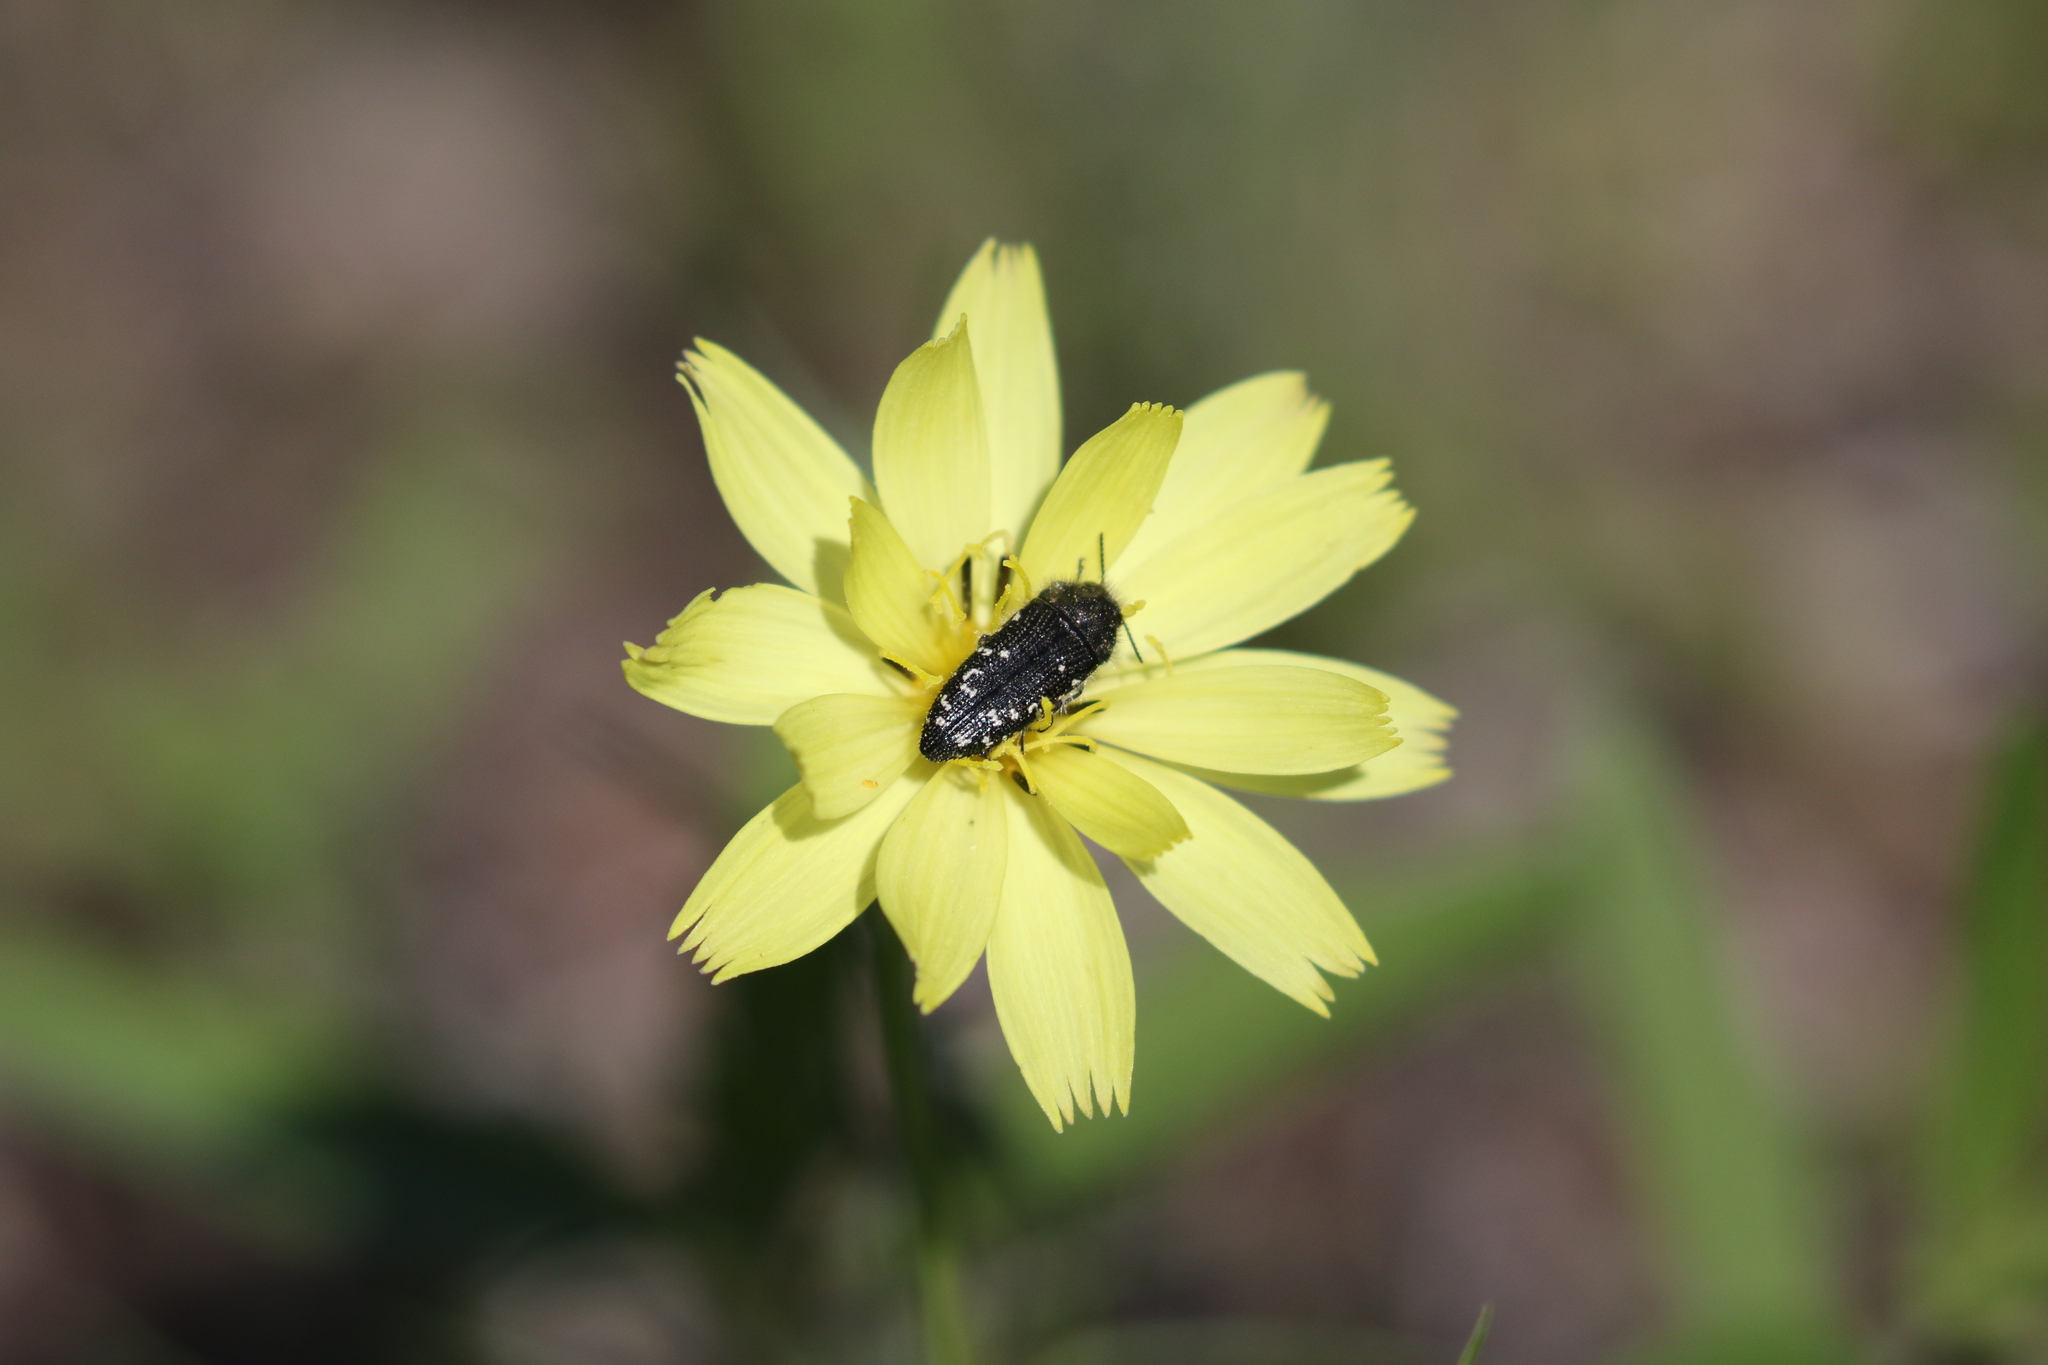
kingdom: Animalia
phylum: Arthropoda
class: Insecta
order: Coleoptera
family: Buprestidae
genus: Acmaeodera
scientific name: Acmaeodera ornatoides
